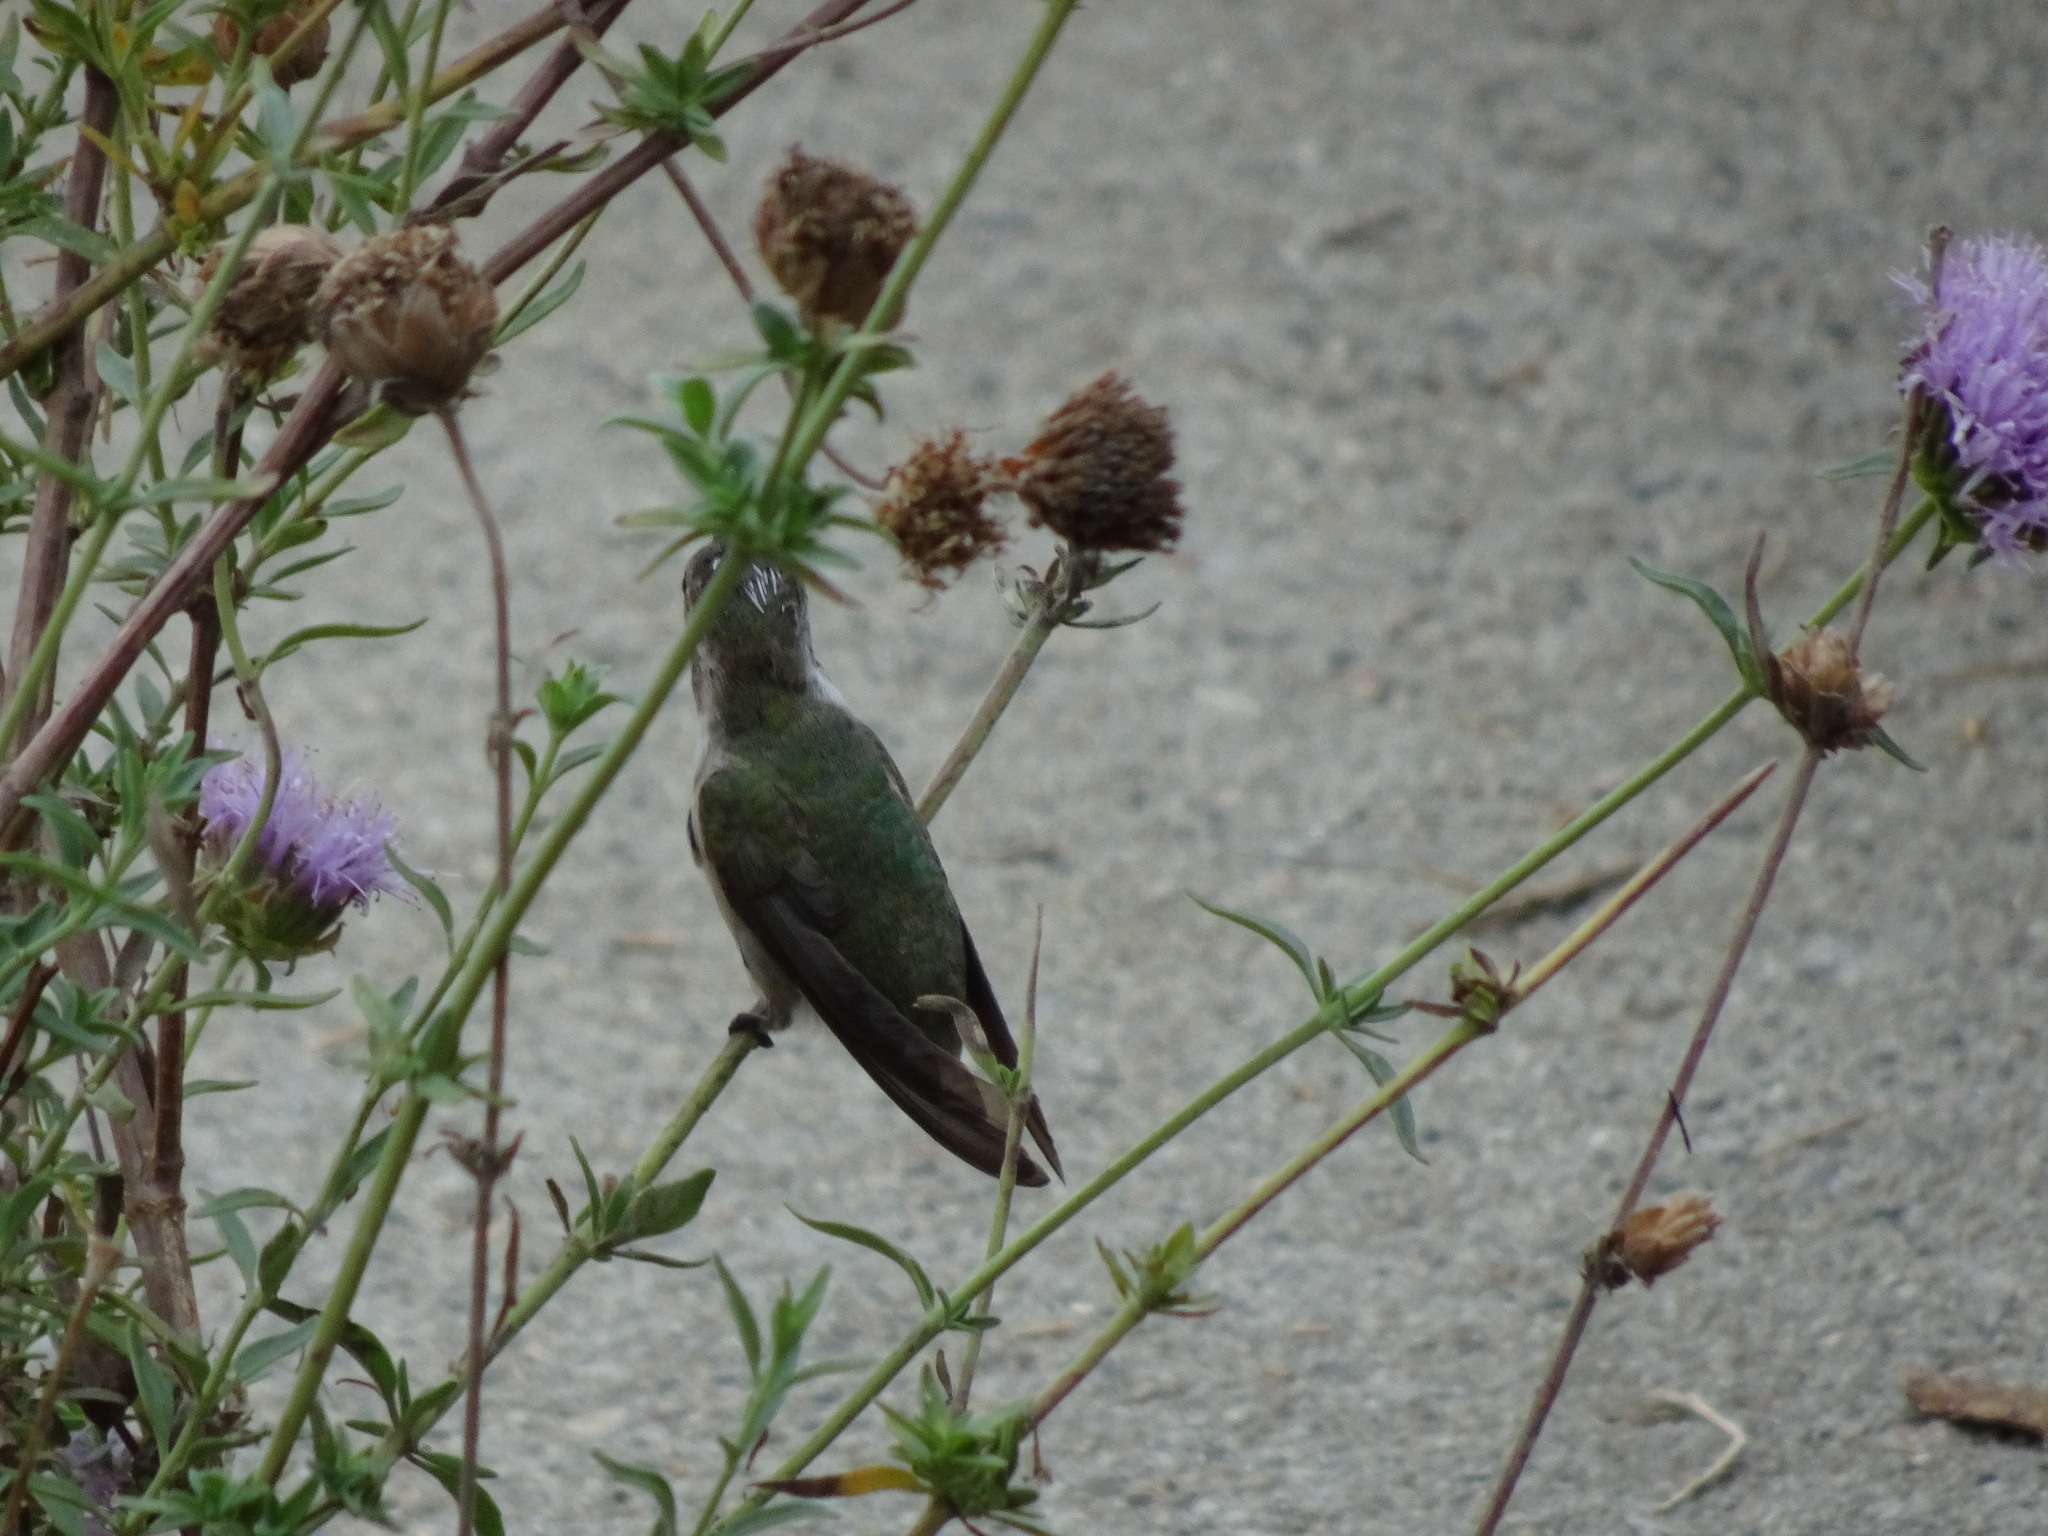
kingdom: Animalia
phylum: Chordata
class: Aves
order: Apodiformes
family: Trochilidae
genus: Calypte
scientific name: Calypte costae
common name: Costa's hummingbird
